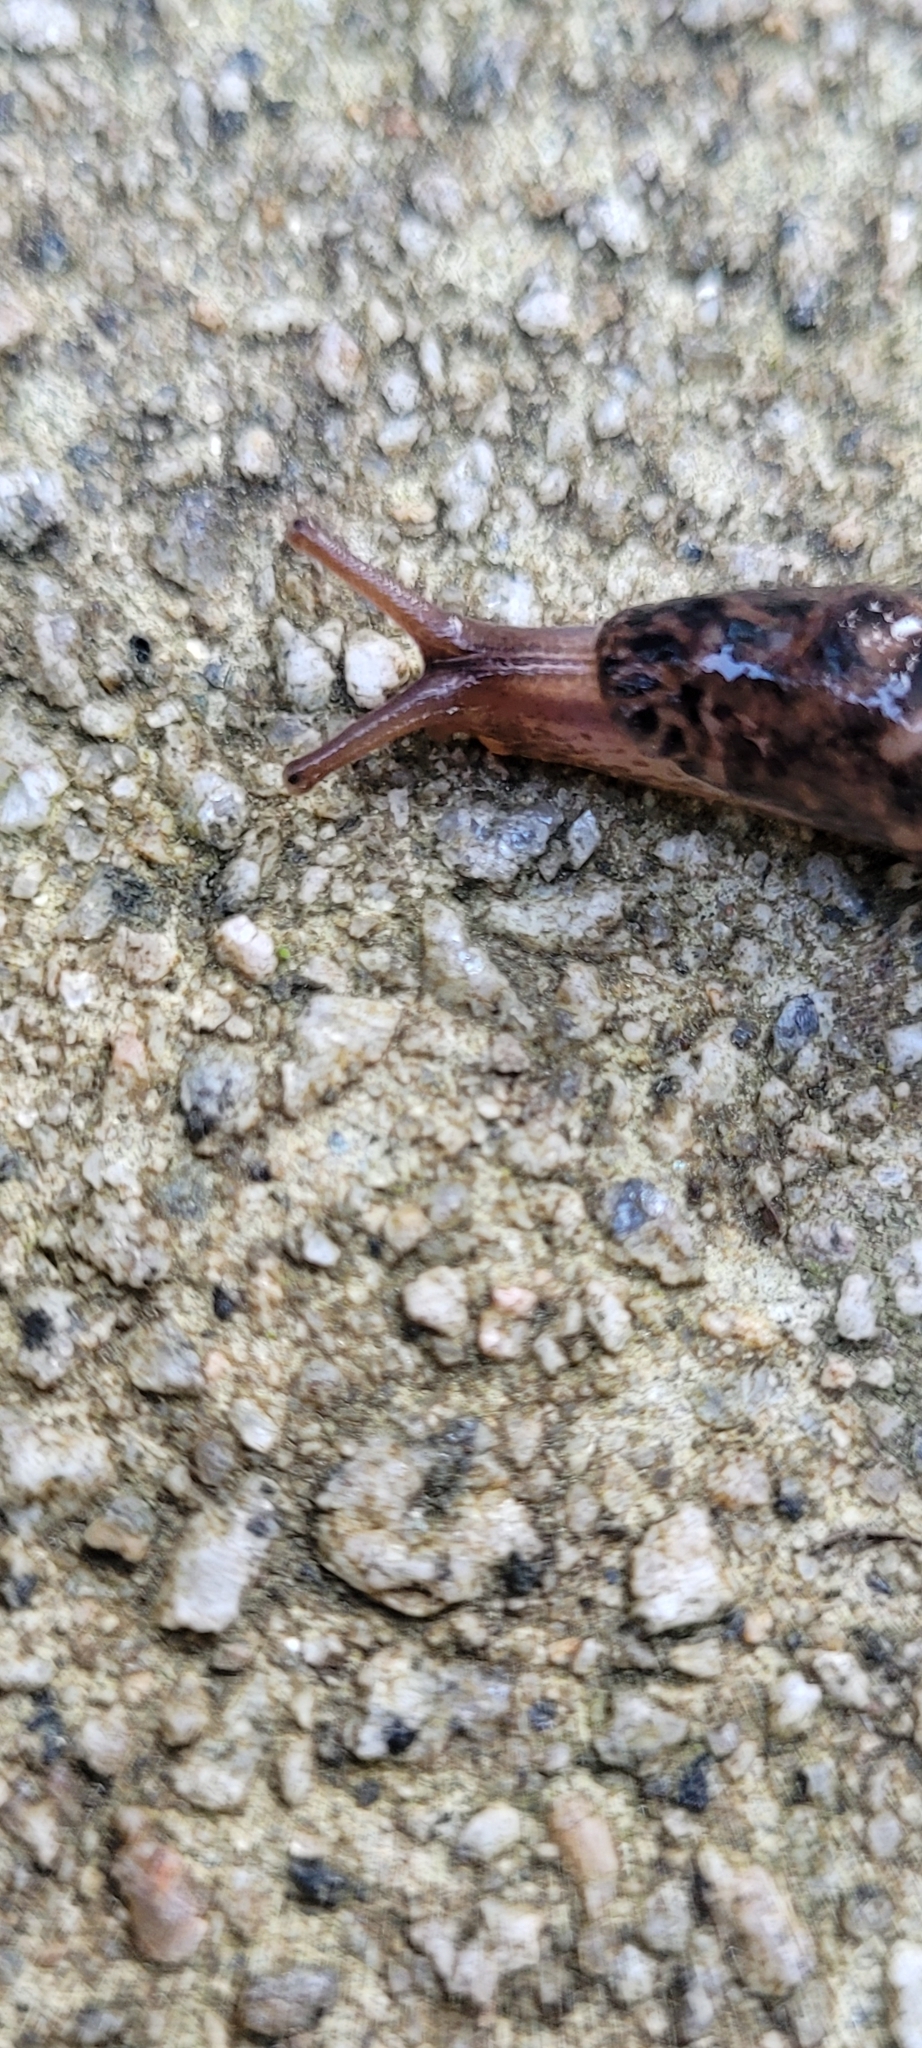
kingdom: Animalia
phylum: Mollusca
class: Gastropoda
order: Stylommatophora
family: Limacidae
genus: Limax
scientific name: Limax maximus
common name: Great grey slug
